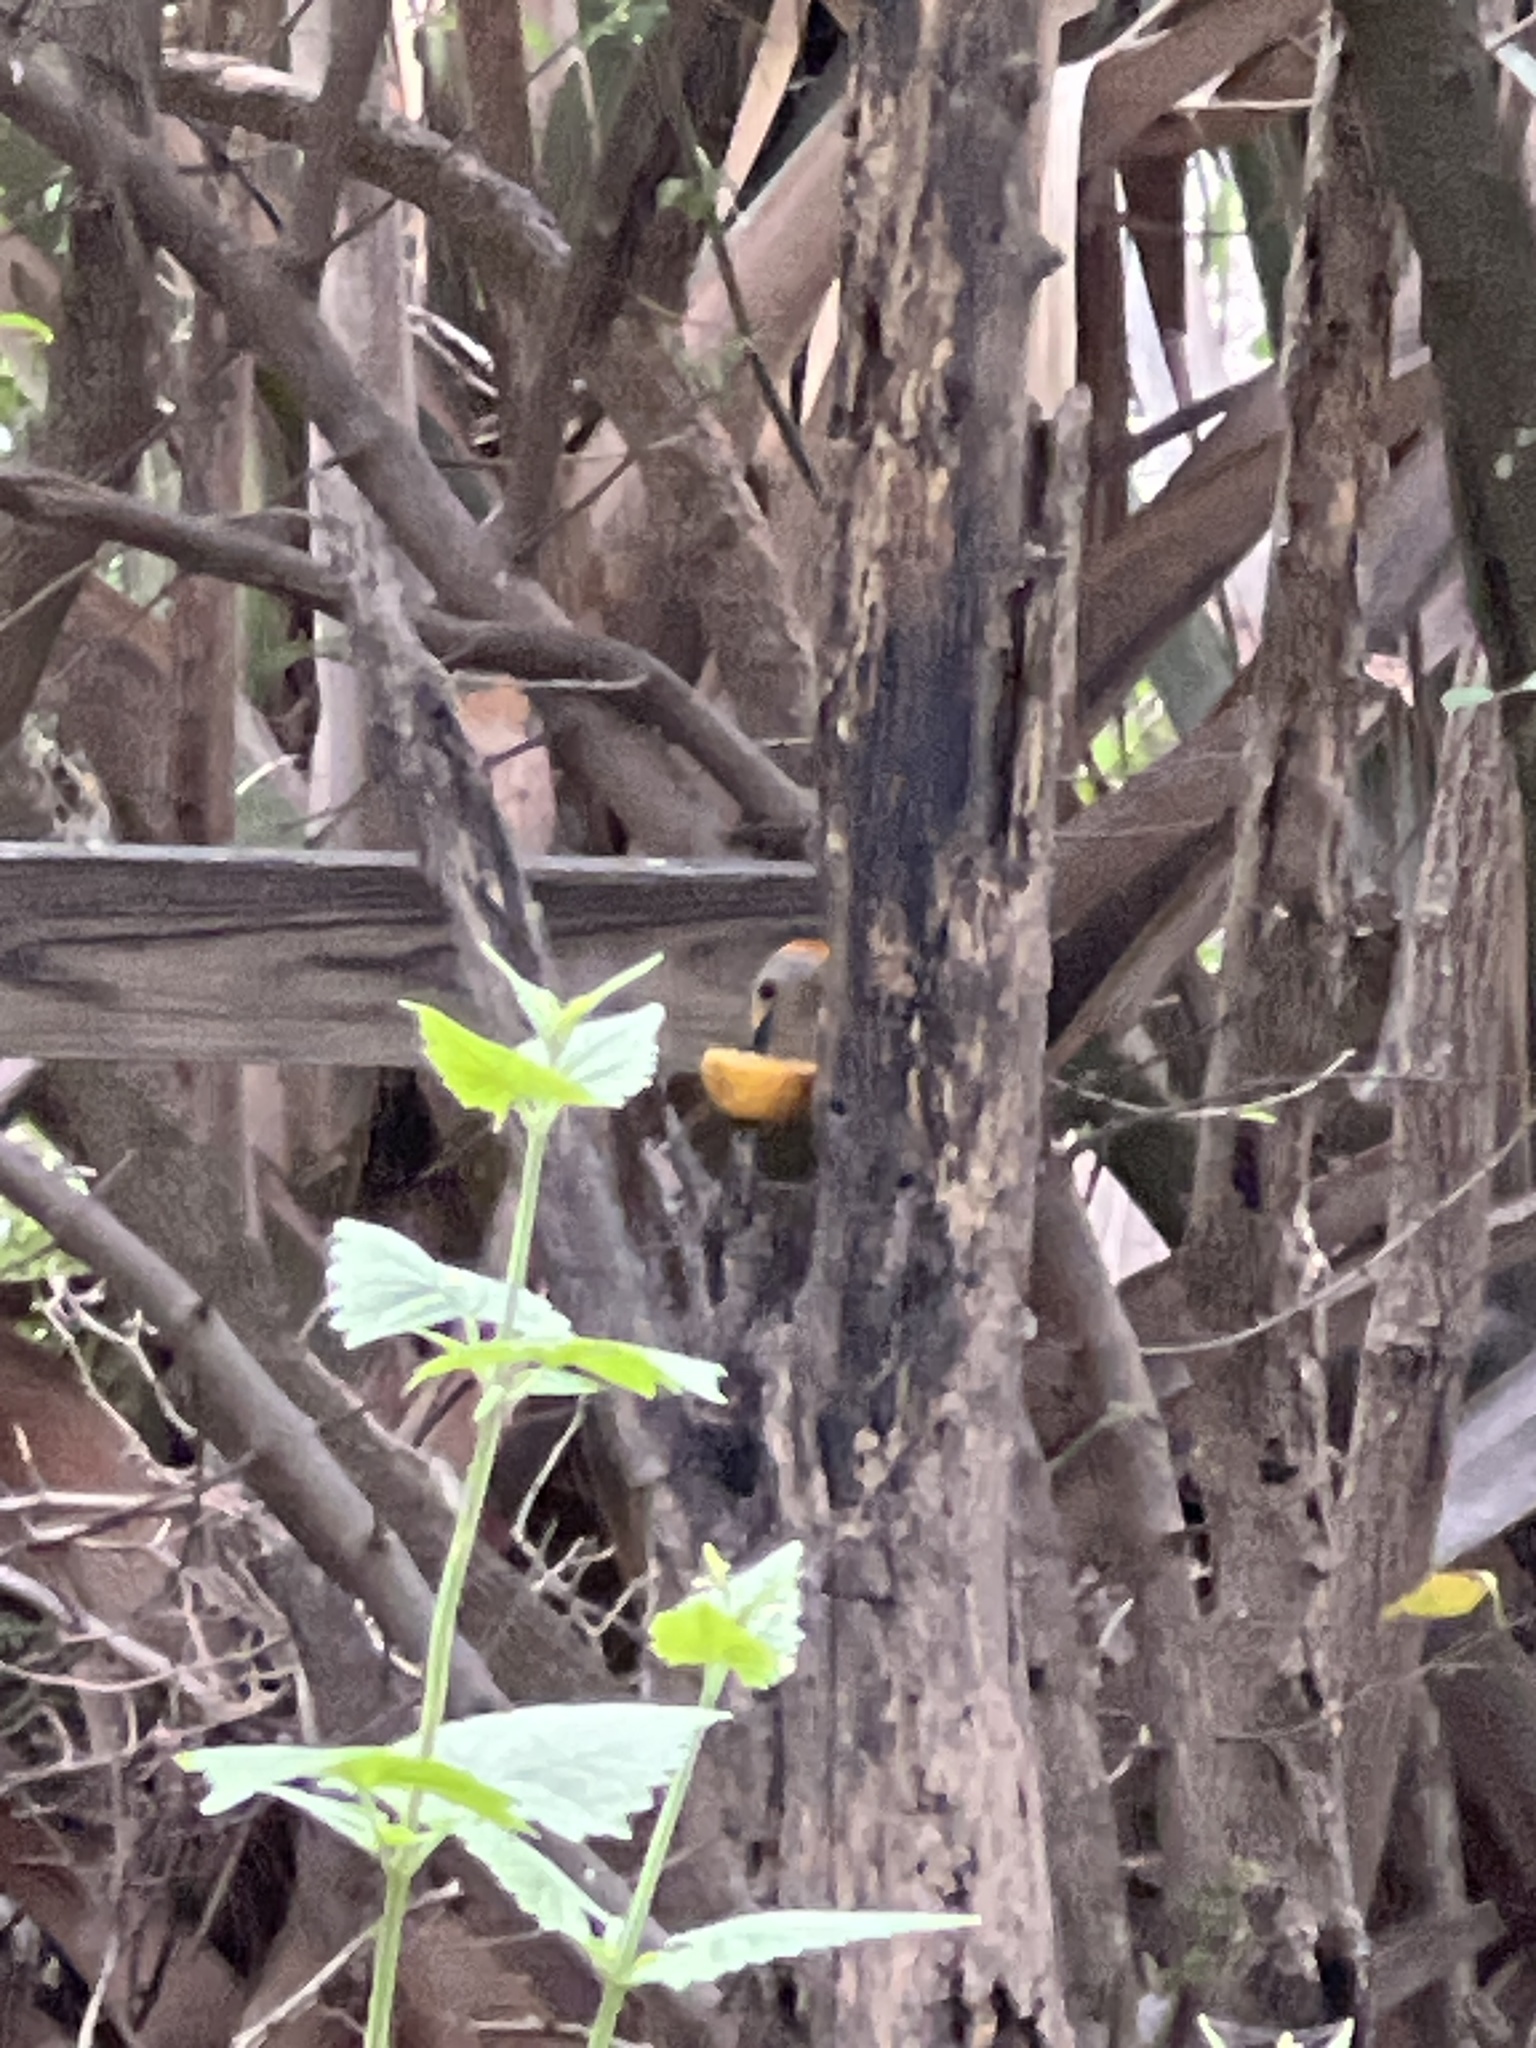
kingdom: Animalia
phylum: Chordata
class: Aves
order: Piciformes
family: Picidae
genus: Melanerpes
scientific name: Melanerpes aurifrons
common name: Golden-fronted woodpecker
